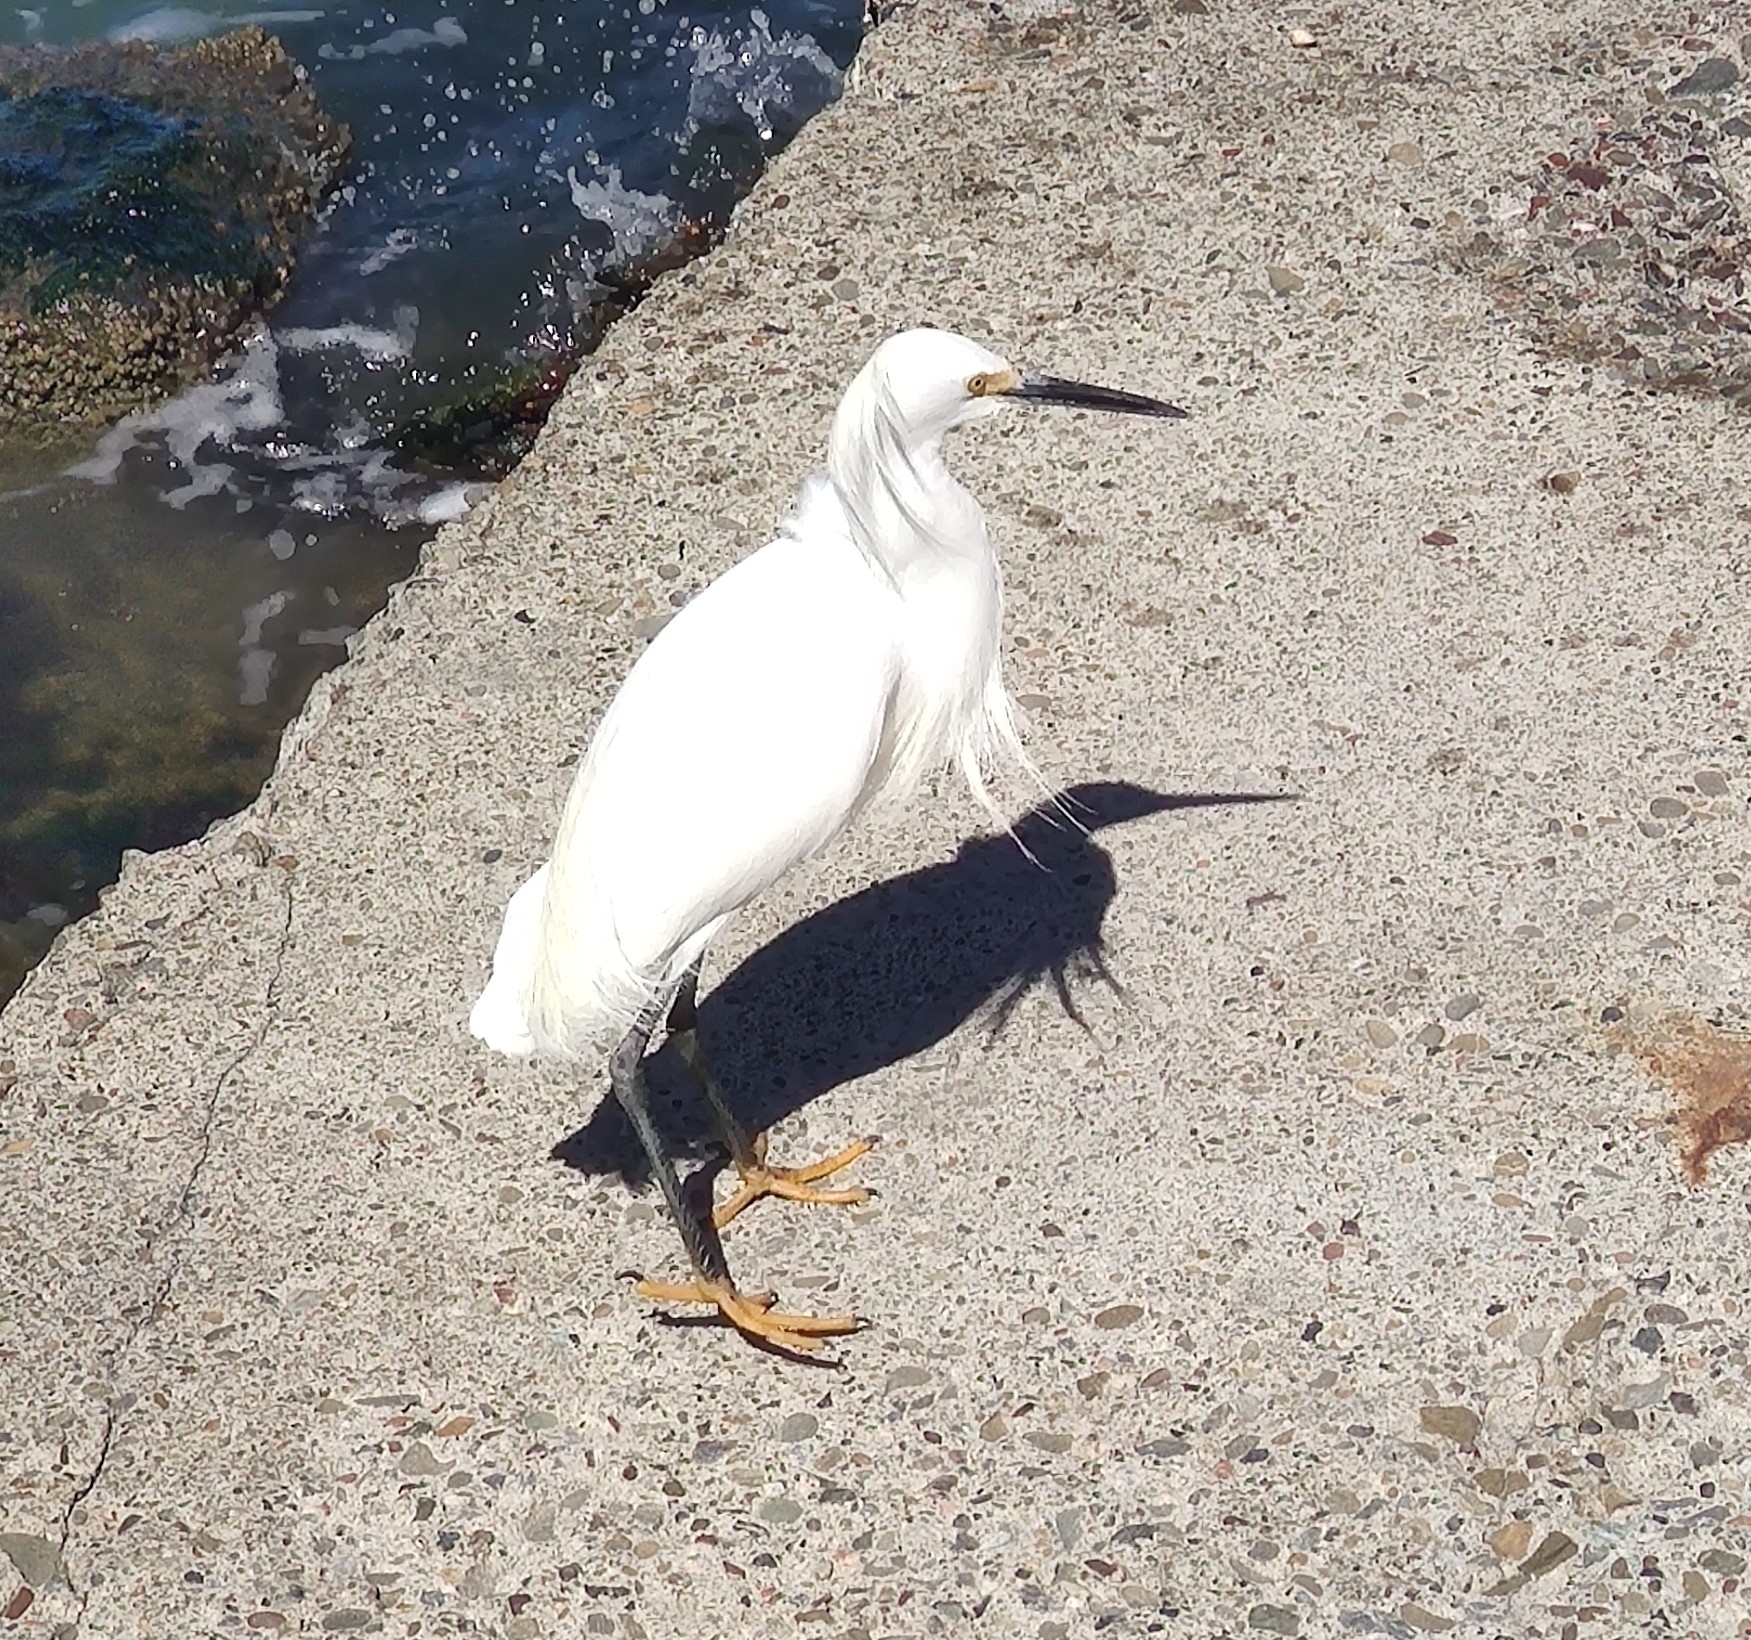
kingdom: Animalia
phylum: Chordata
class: Aves
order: Pelecaniformes
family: Ardeidae
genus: Egretta
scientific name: Egretta thula
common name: Snowy egret
